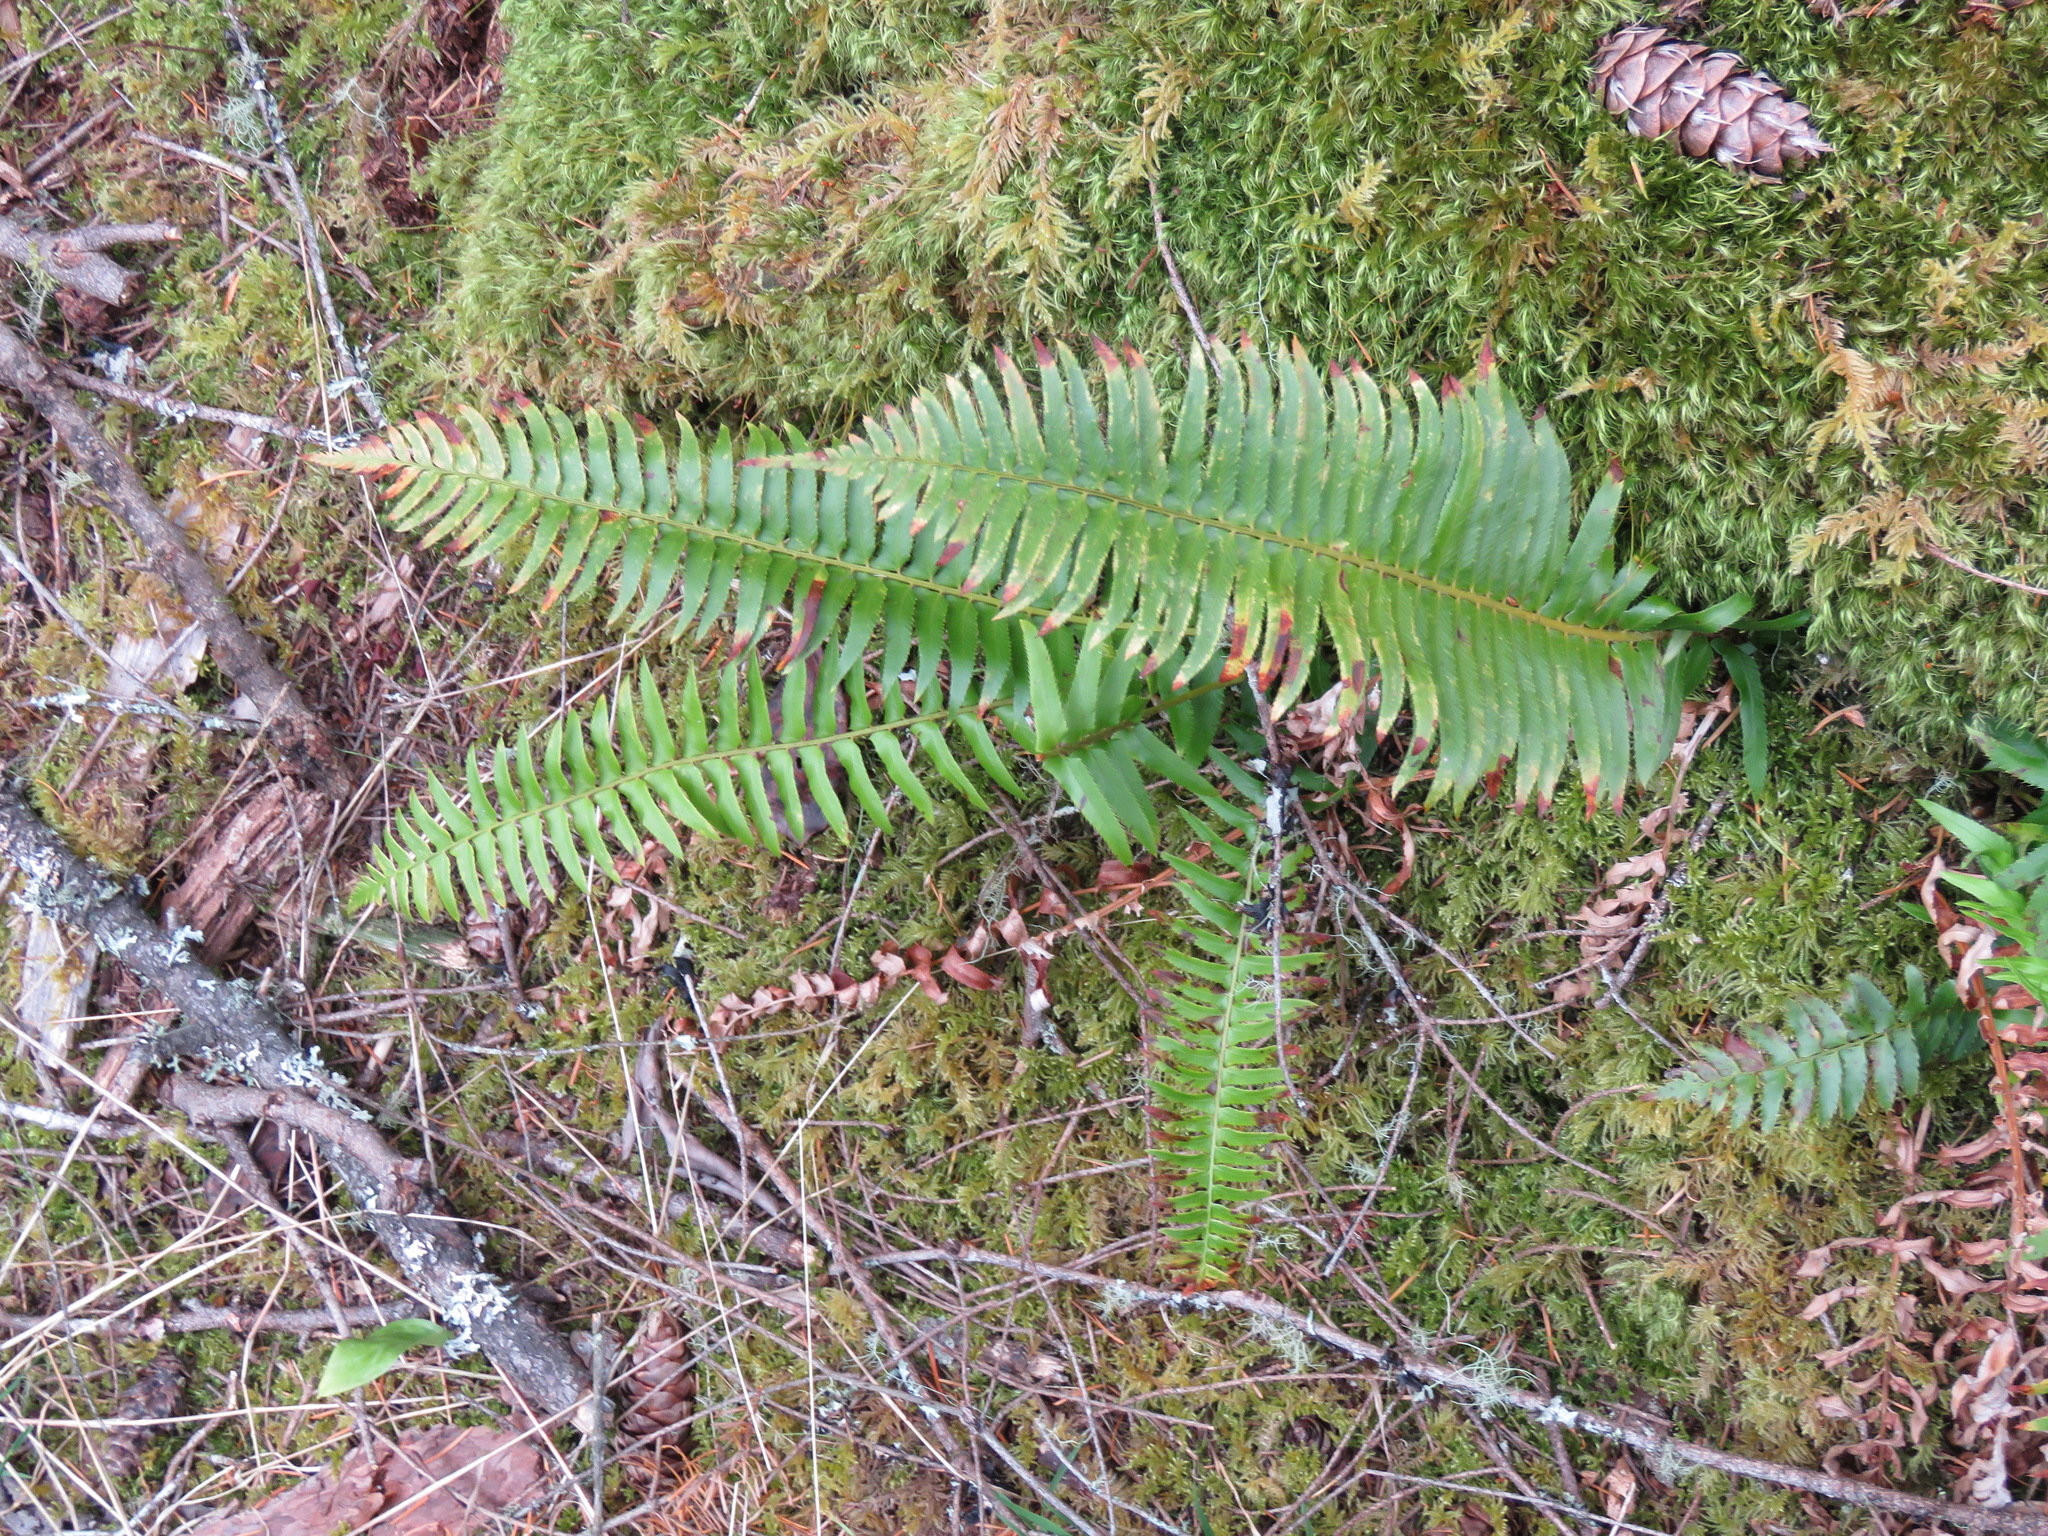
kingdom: Plantae
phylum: Tracheophyta
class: Polypodiopsida
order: Polypodiales
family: Dryopteridaceae
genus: Polystichum
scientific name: Polystichum munitum
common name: Western sword-fern
